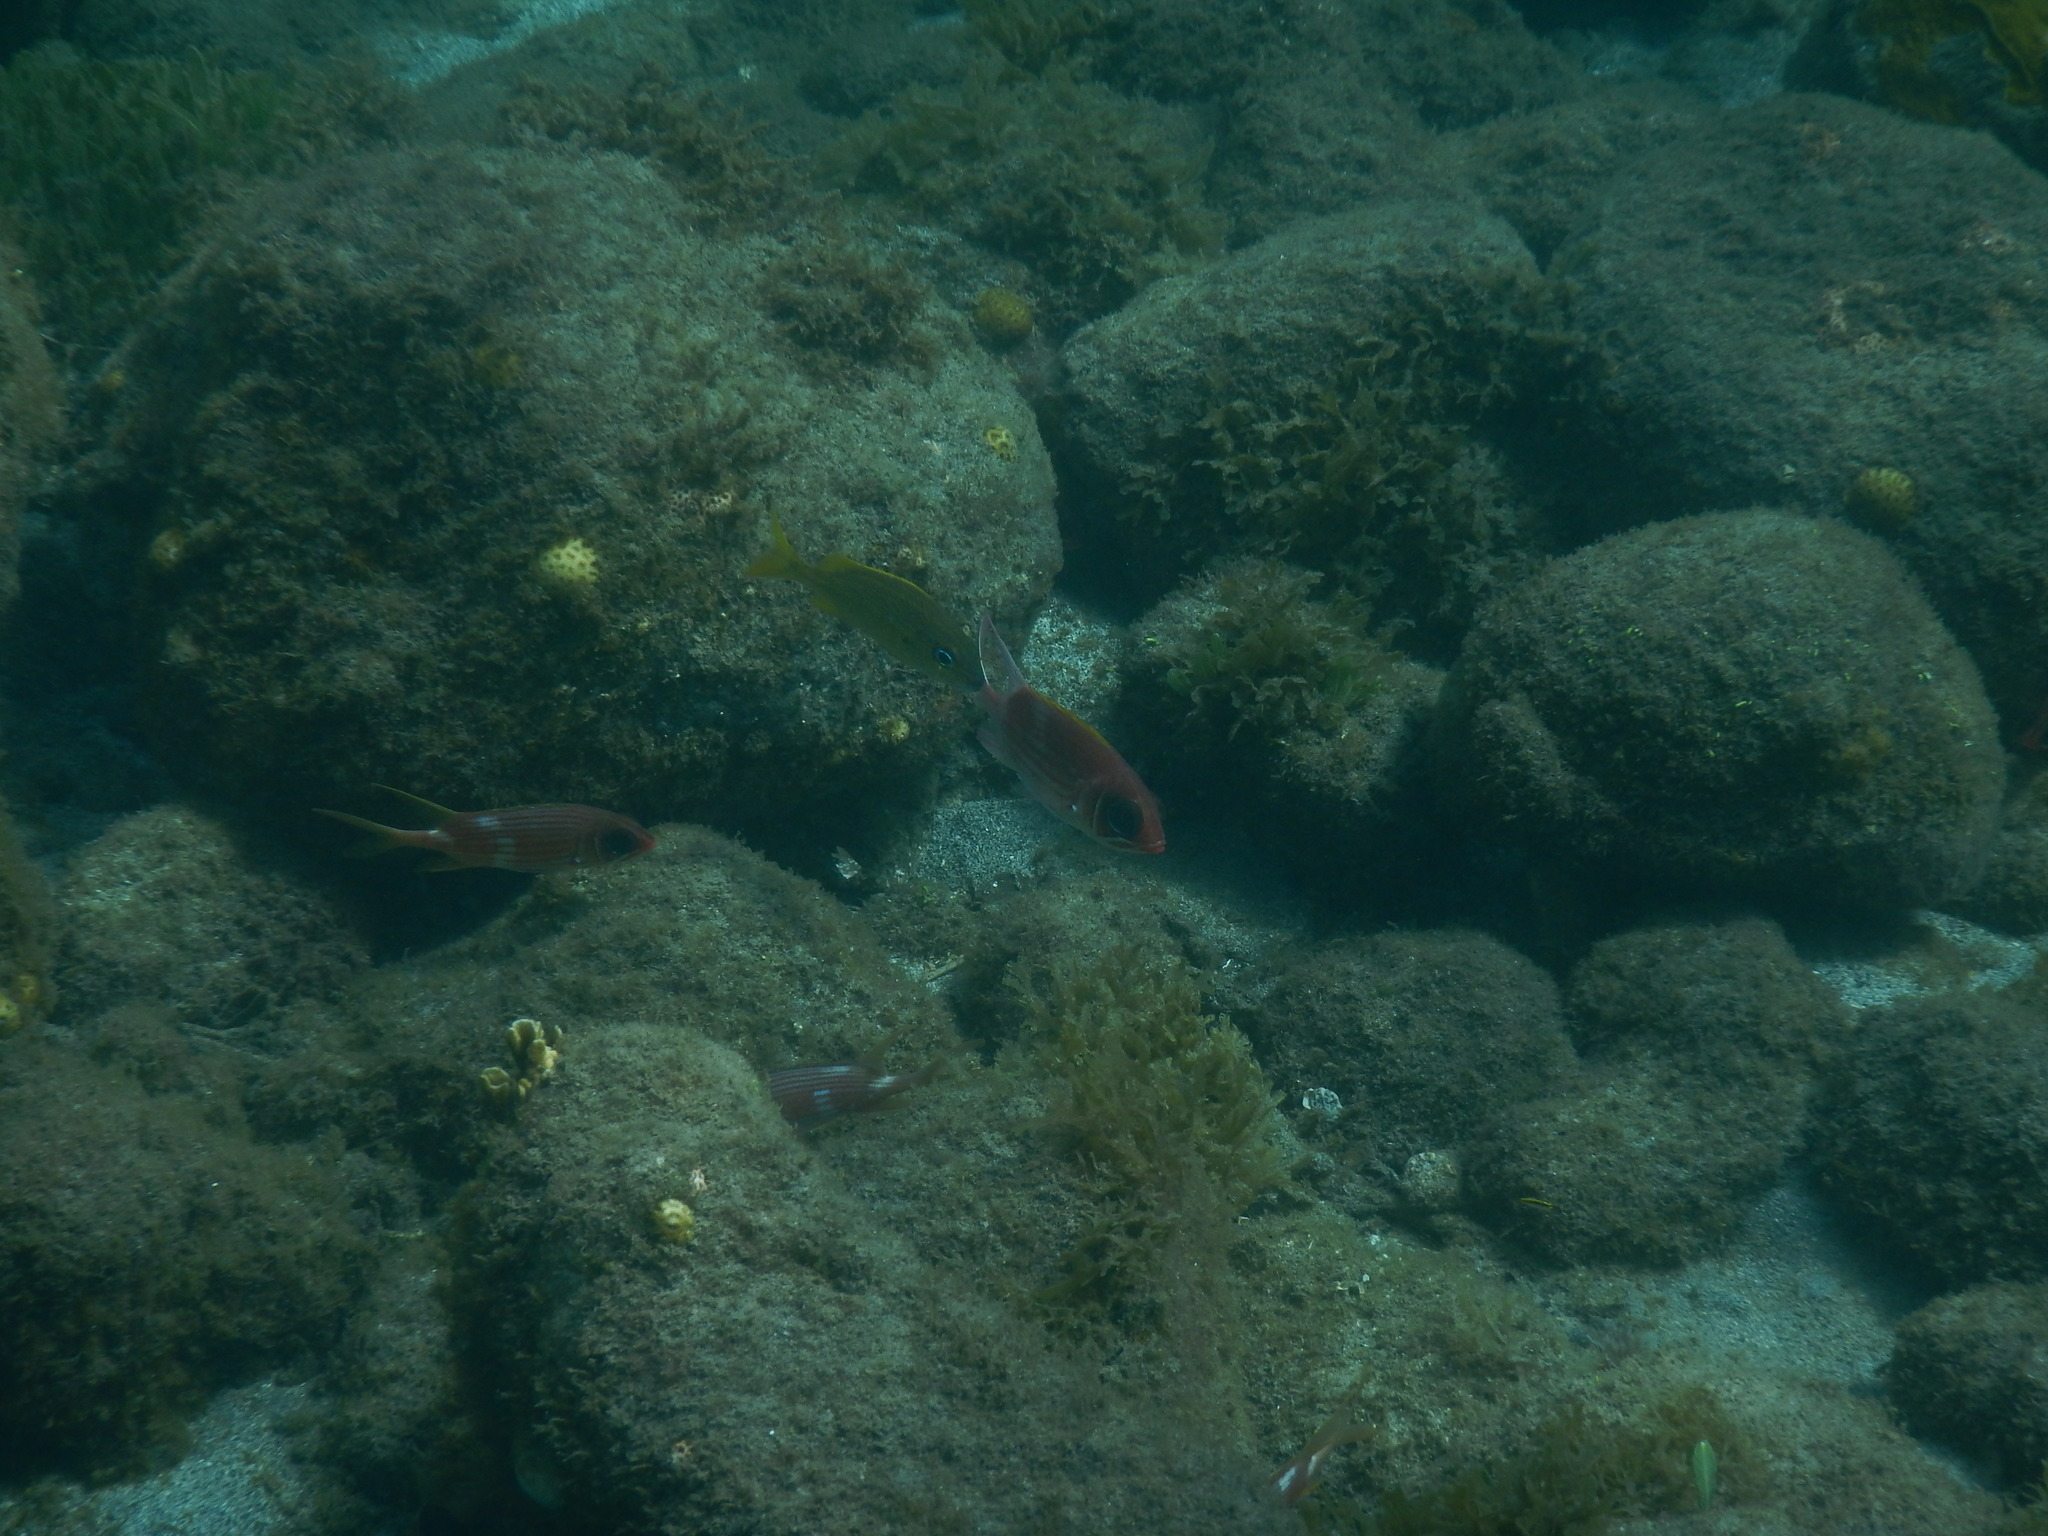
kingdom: Animalia
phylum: Chordata
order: Beryciformes
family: Holocentridae
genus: Holocentrus
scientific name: Holocentrus adscensionis
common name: Squirrelfish
